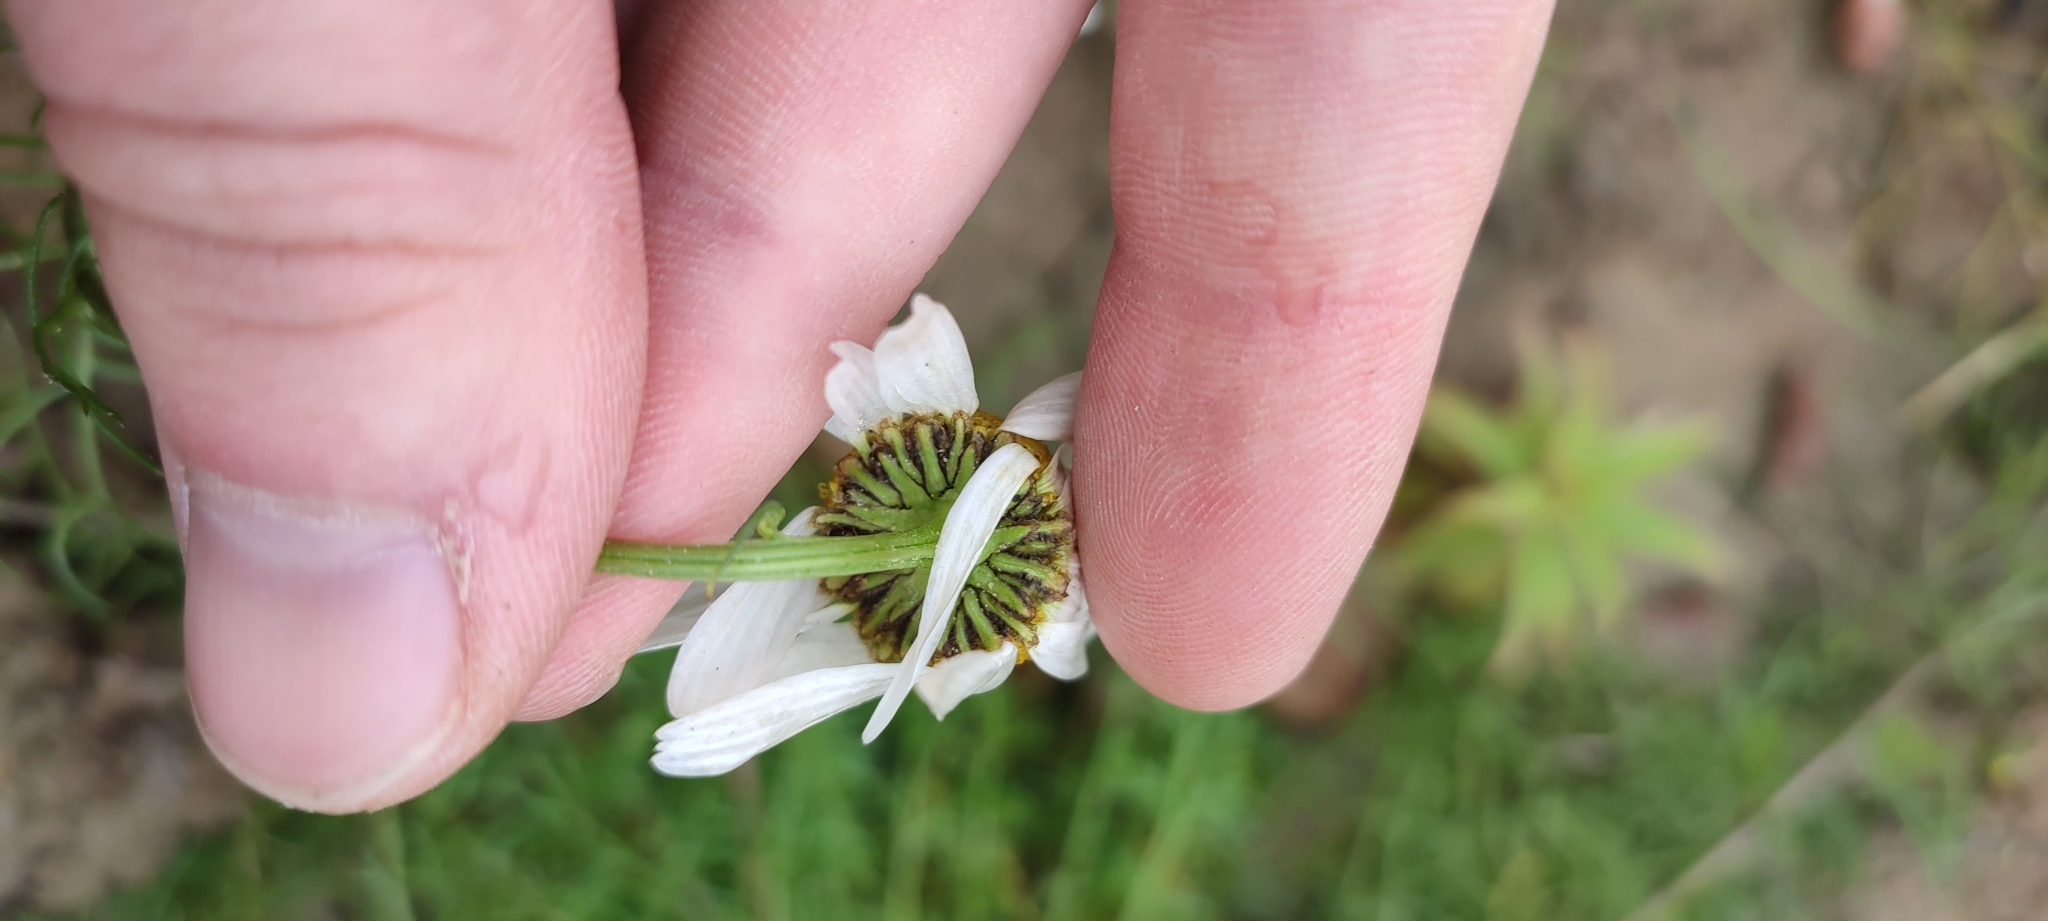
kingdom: Plantae
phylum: Tracheophyta
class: Magnoliopsida
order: Asterales
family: Asteraceae
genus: Tripleurospermum
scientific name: Tripleurospermum hookeri
